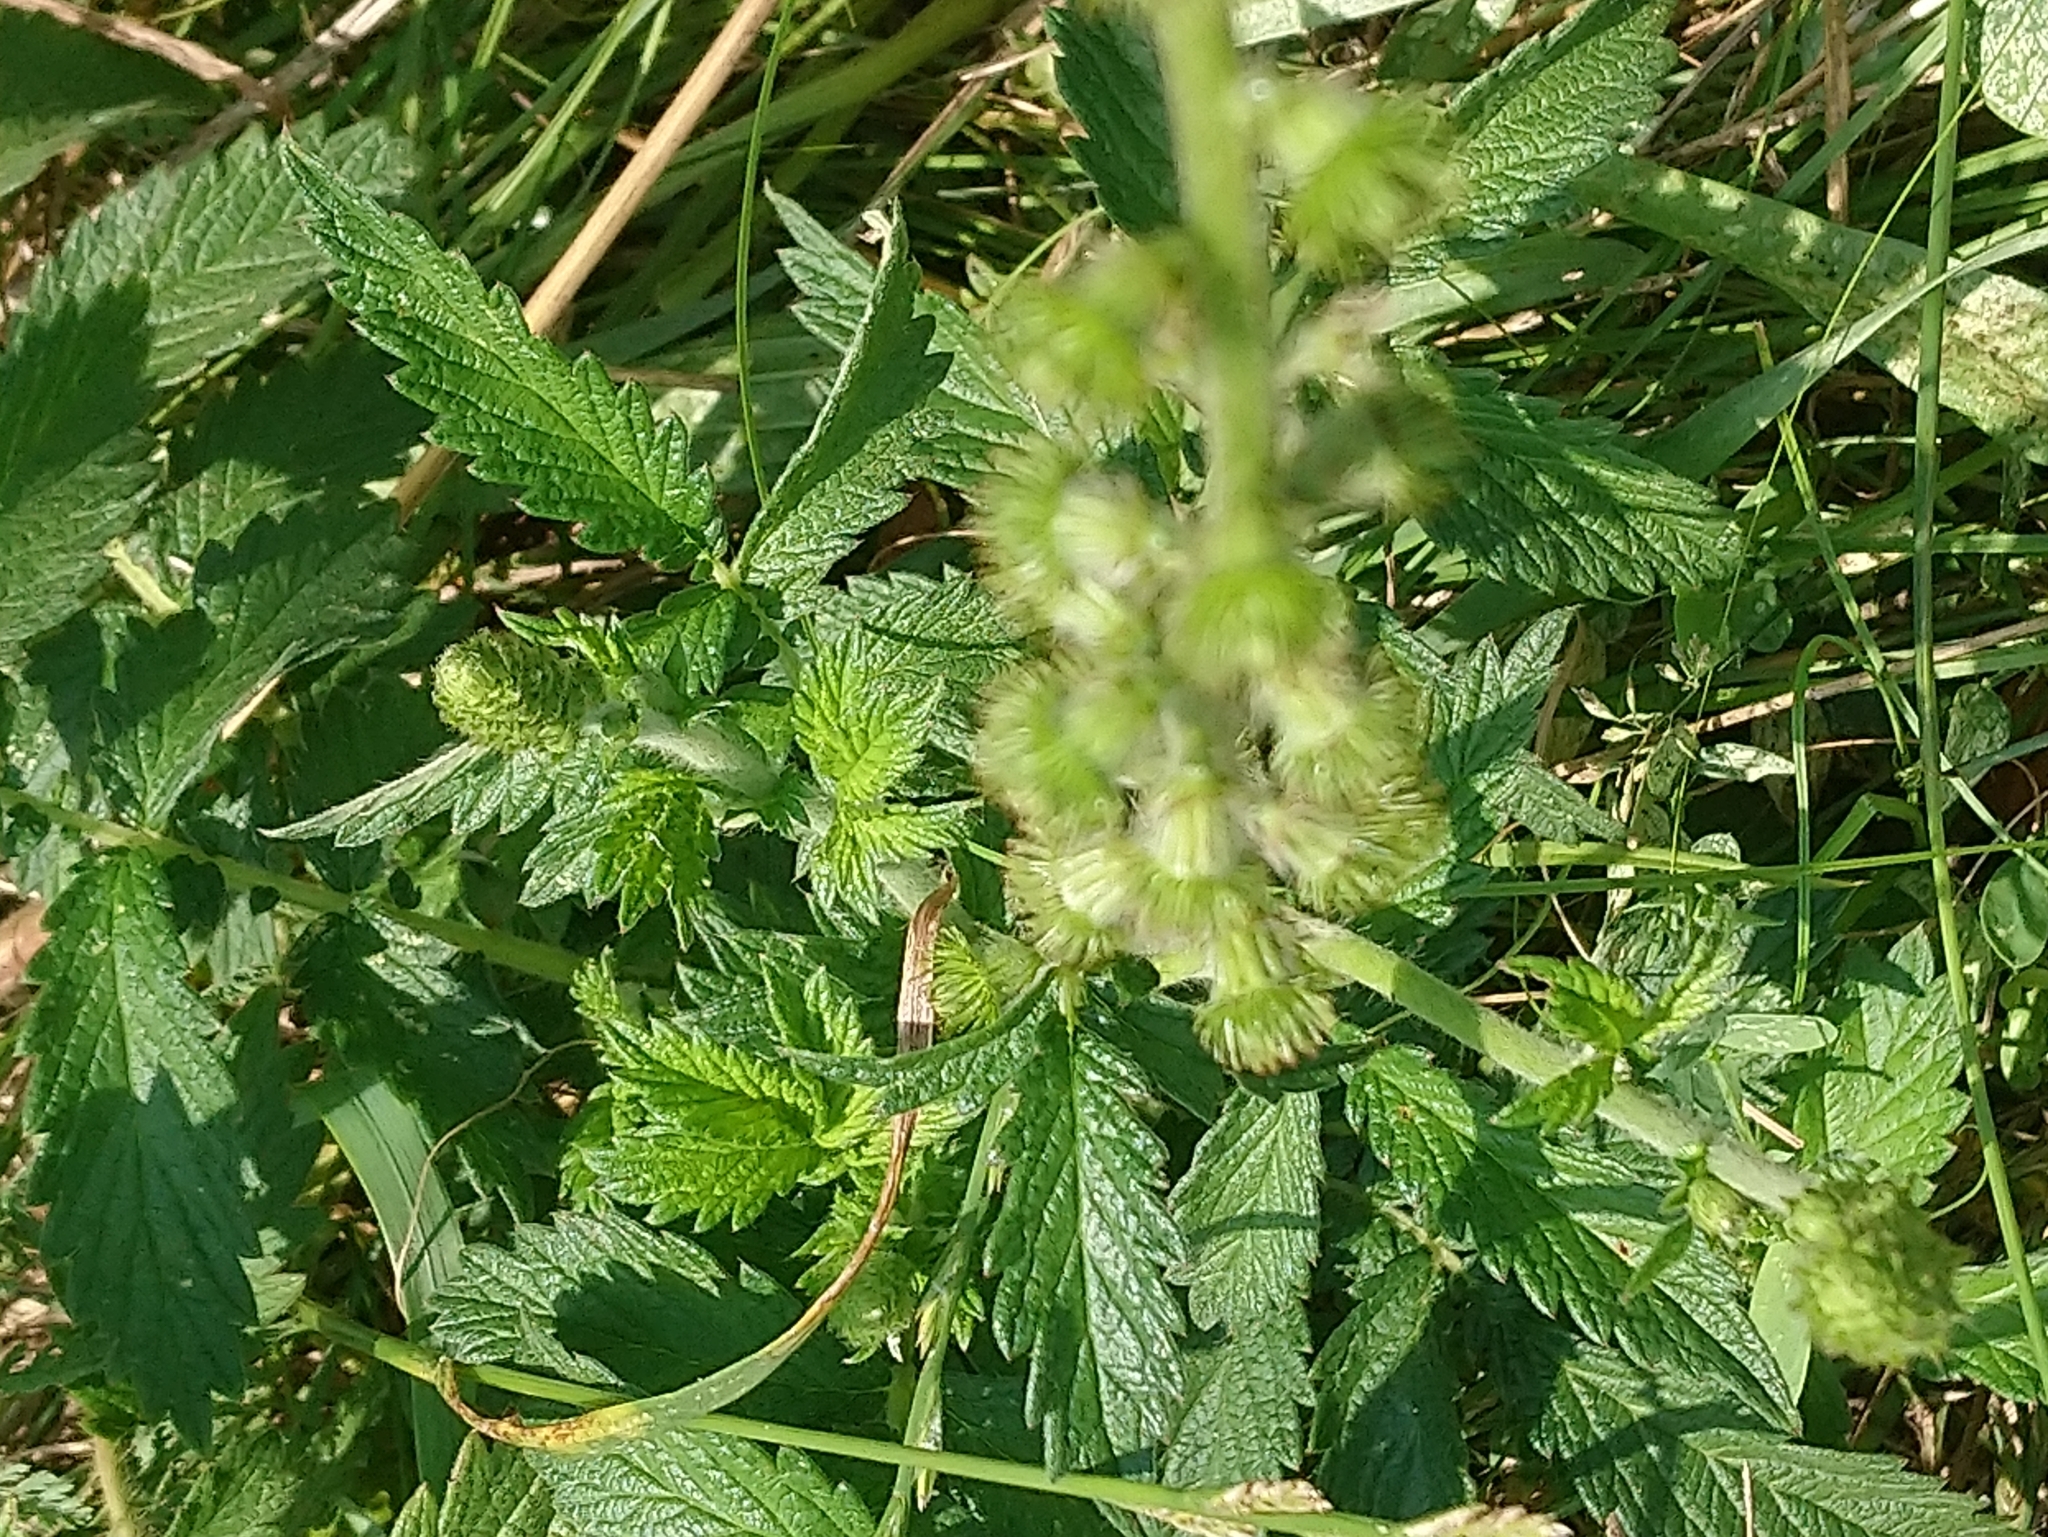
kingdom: Plantae
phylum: Tracheophyta
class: Magnoliopsida
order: Rosales
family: Rosaceae
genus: Agrimonia
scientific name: Agrimonia eupatoria
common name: Agrimony
